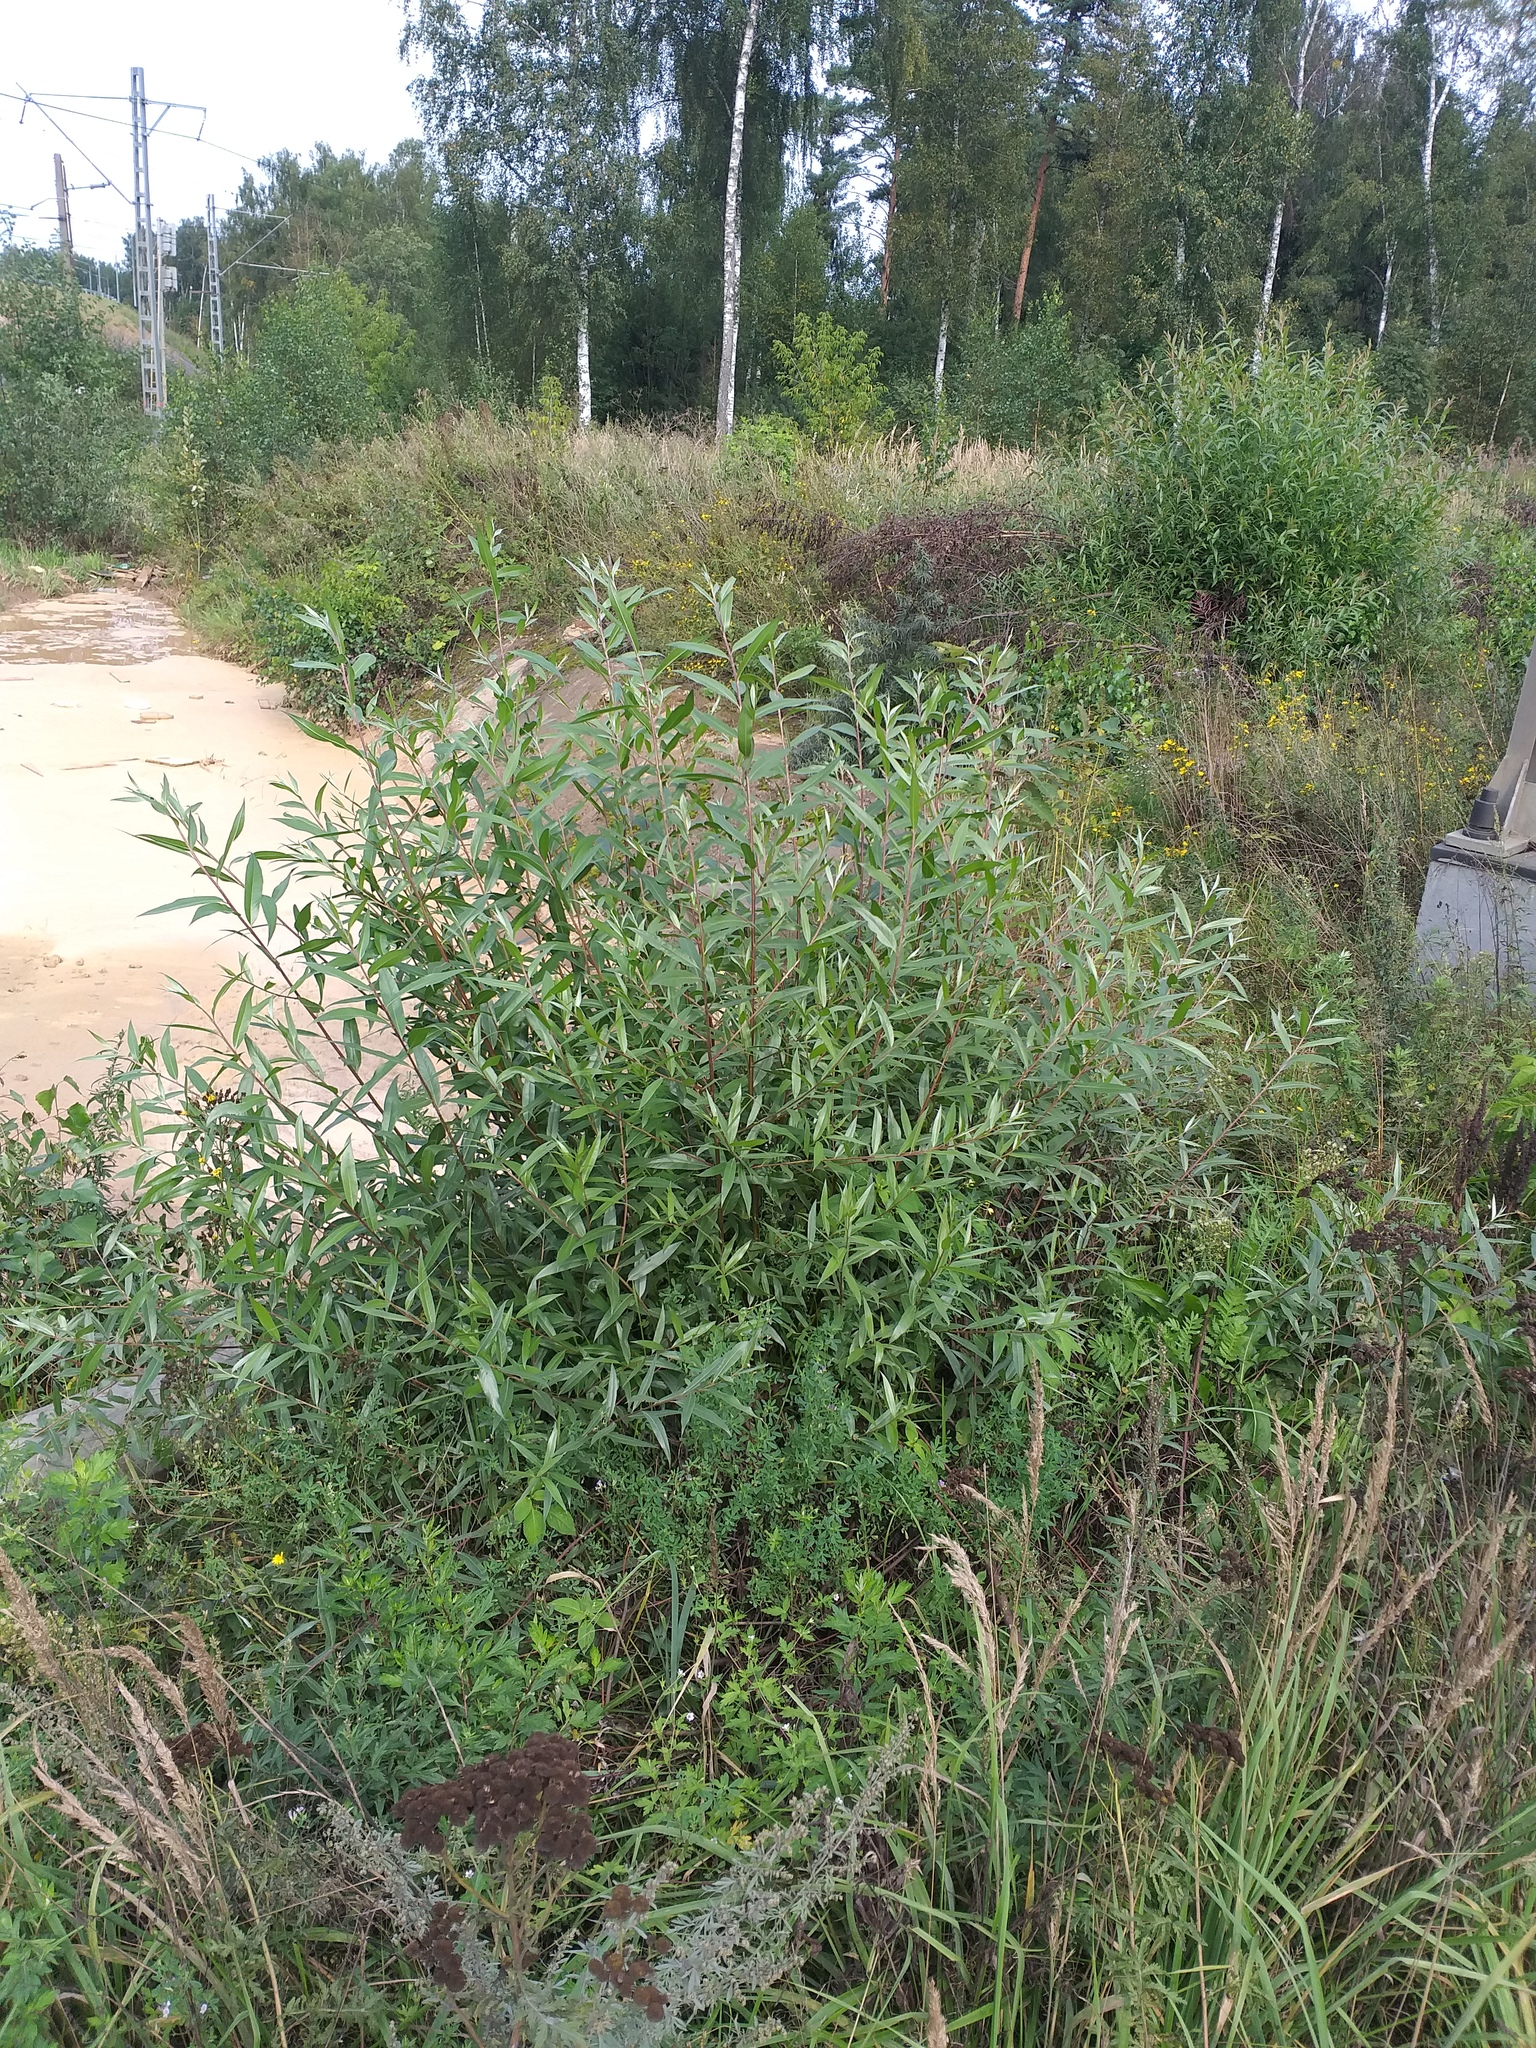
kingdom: Plantae
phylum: Tracheophyta
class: Magnoliopsida
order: Malpighiales
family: Salicaceae
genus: Salix
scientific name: Salix alba
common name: White willow
